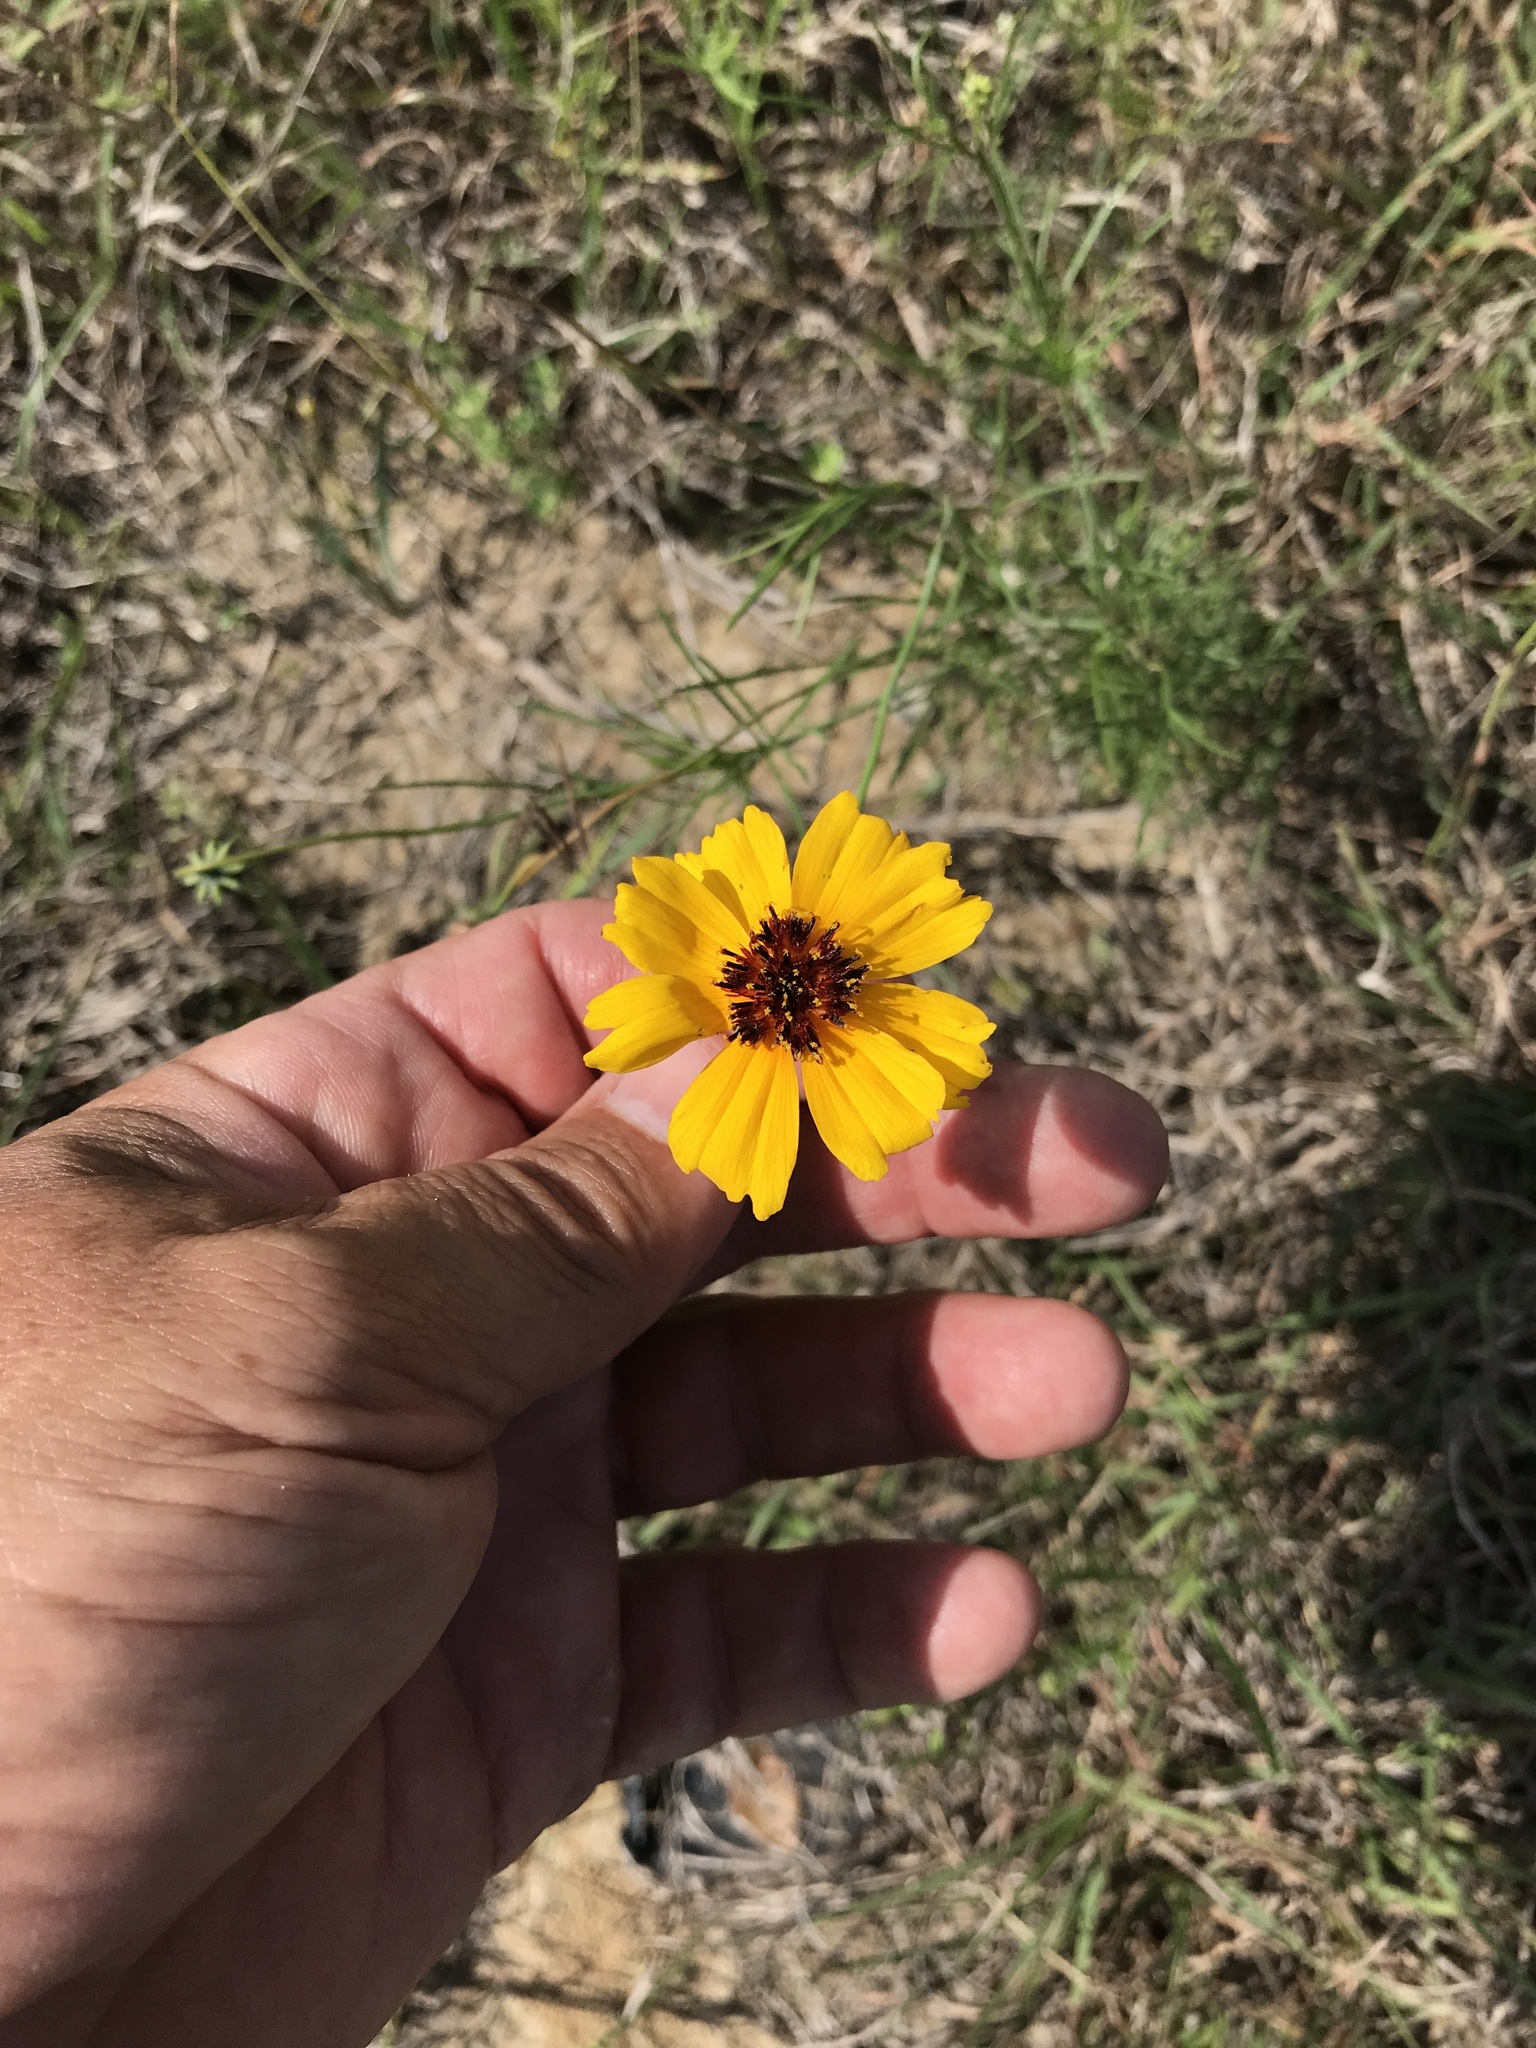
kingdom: Plantae
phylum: Tracheophyta
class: Magnoliopsida
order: Asterales
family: Asteraceae
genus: Thelesperma
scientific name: Thelesperma filifolium
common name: Stiff greenthread
